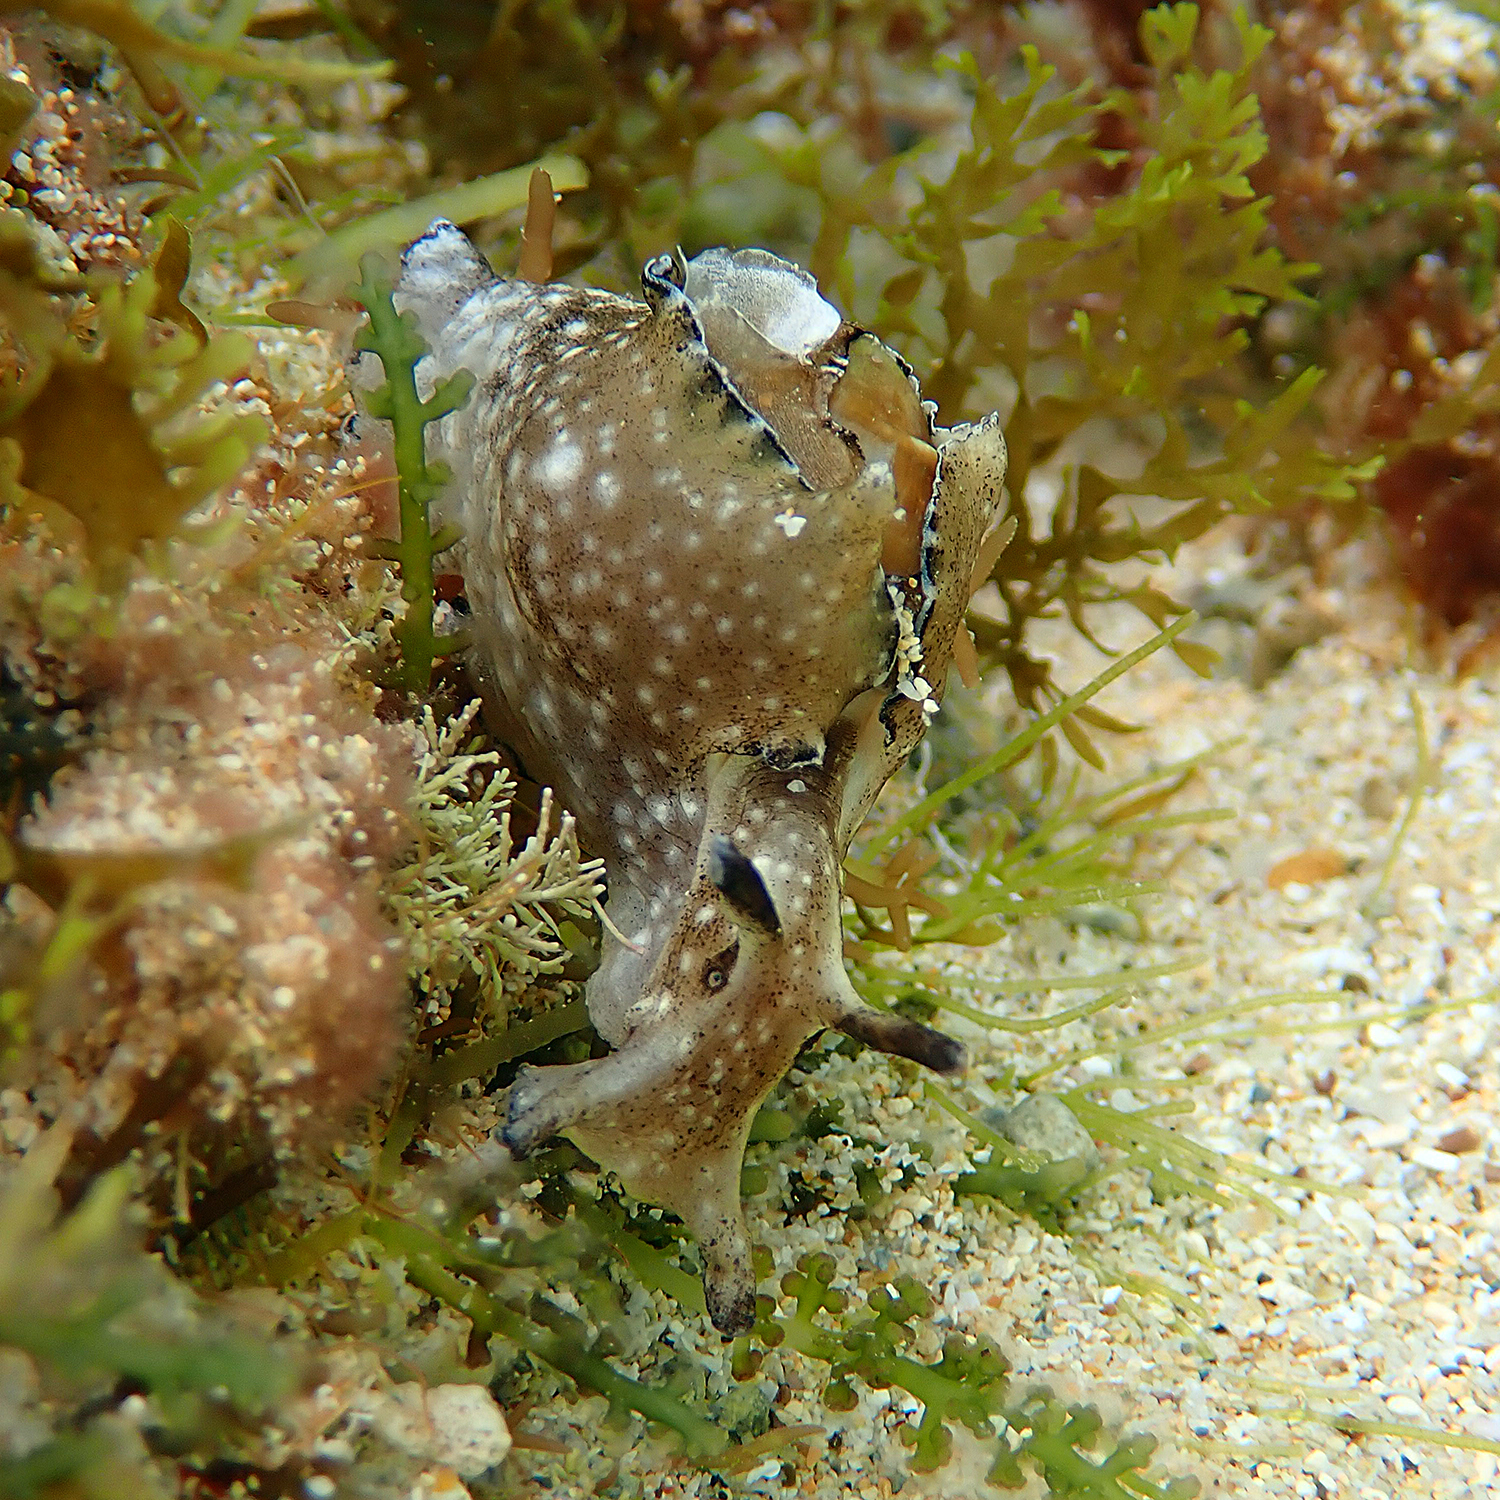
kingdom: Animalia
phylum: Mollusca
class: Gastropoda
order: Aplysiida
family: Aplysiidae
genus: Aplysia
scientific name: Aplysia concava
